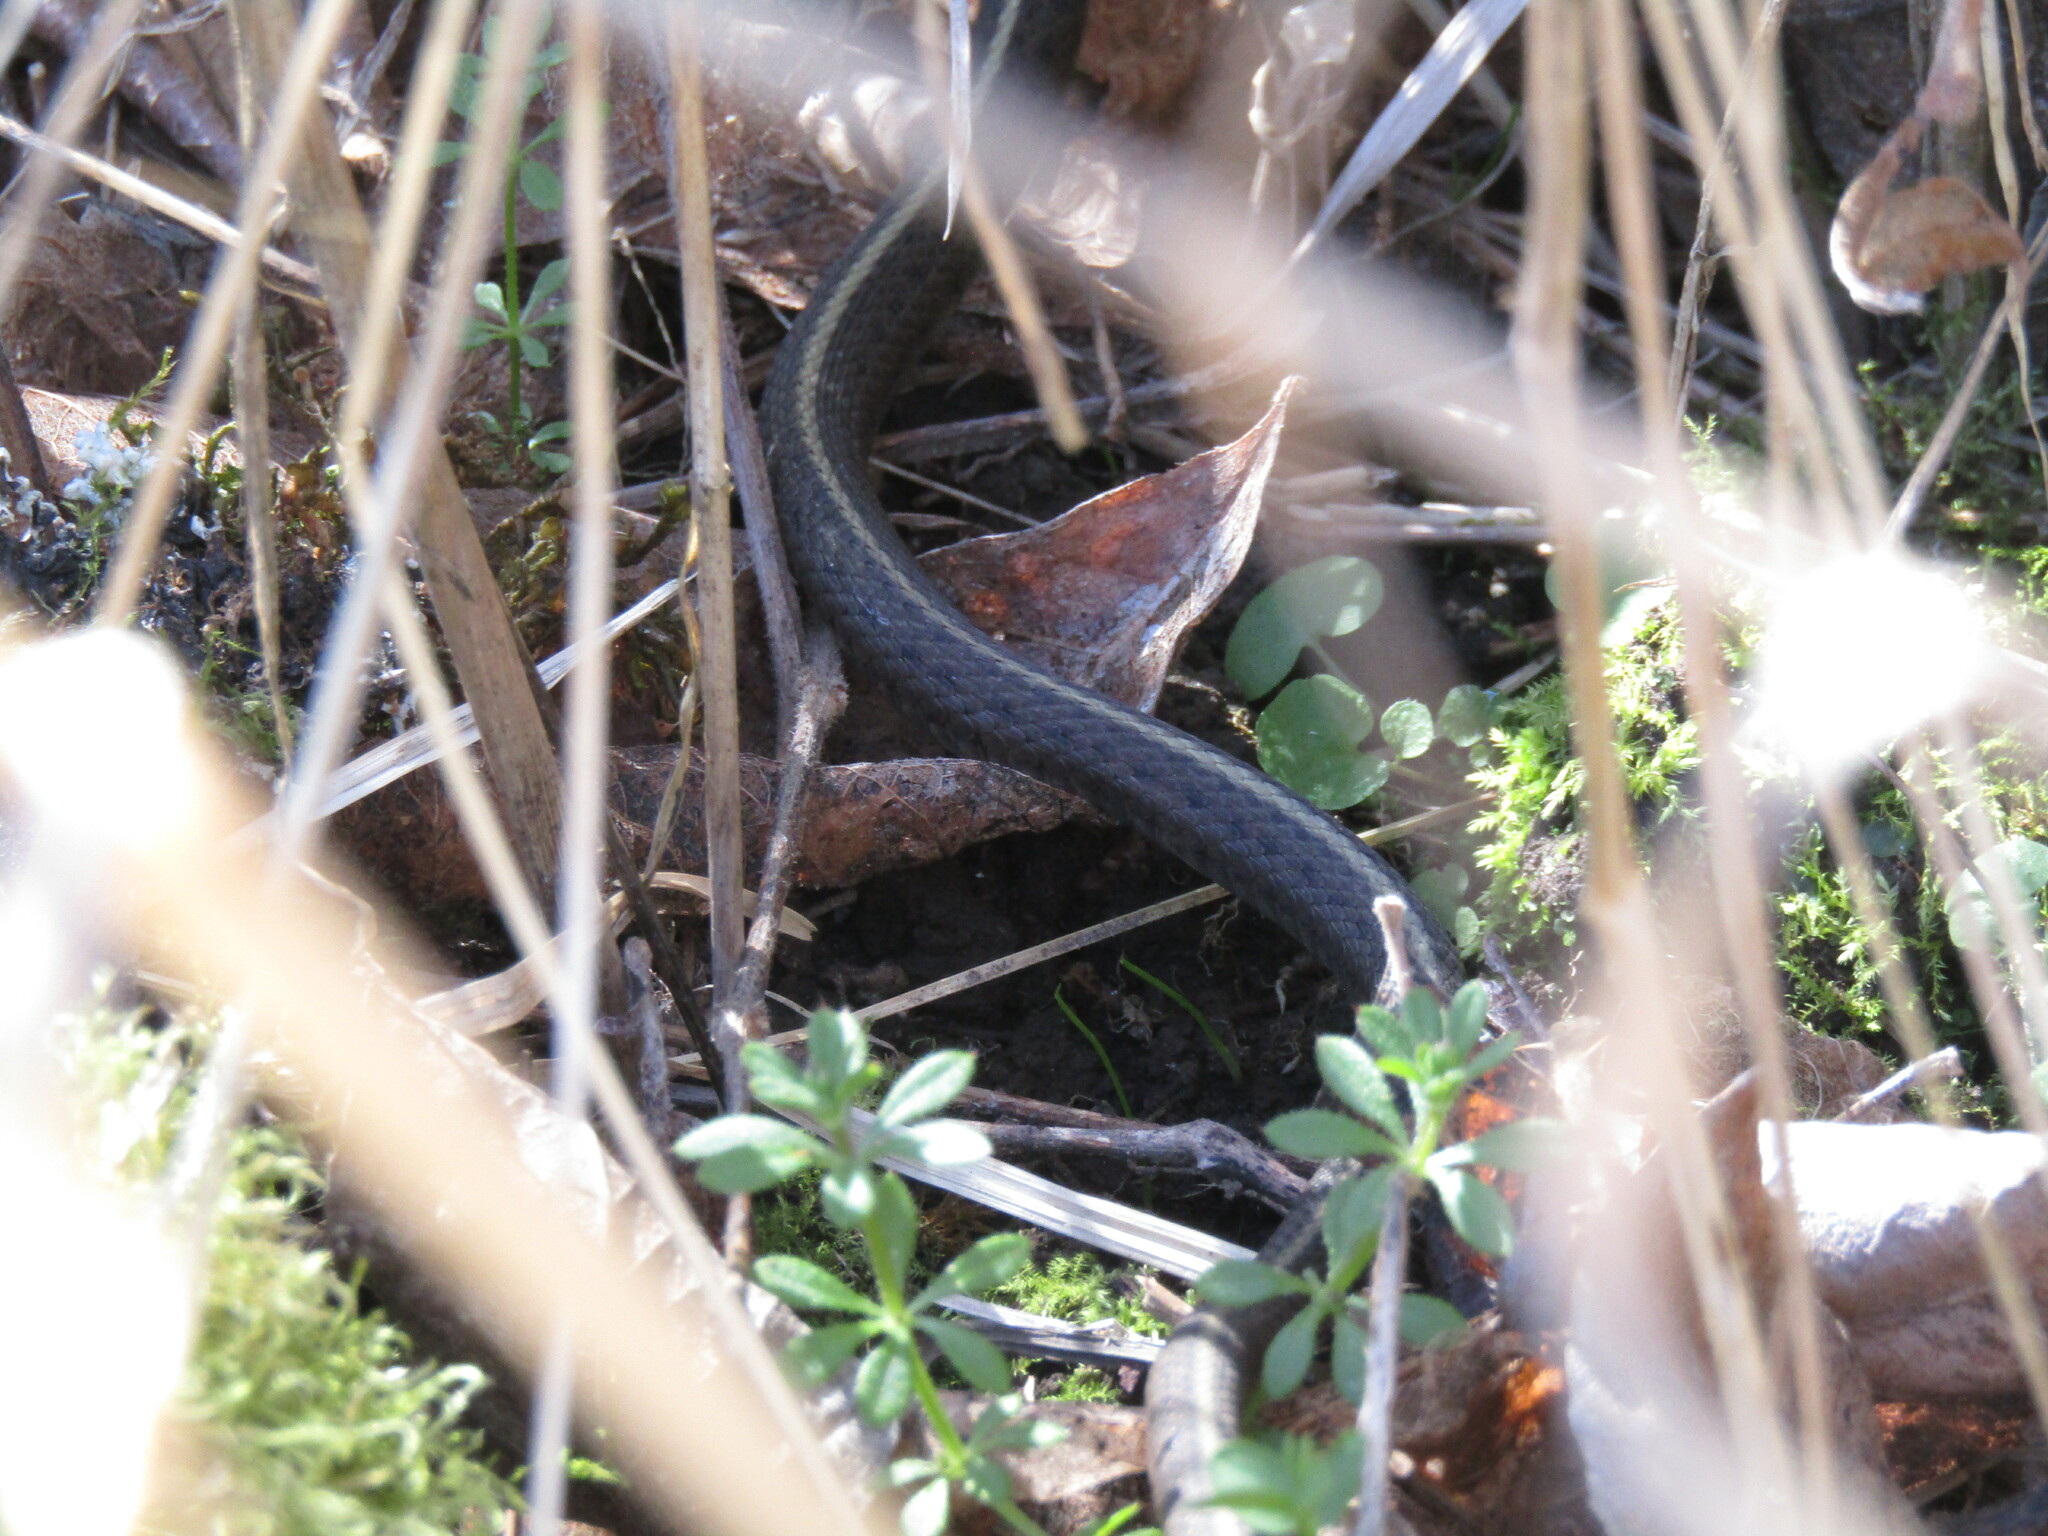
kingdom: Animalia
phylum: Chordata
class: Squamata
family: Colubridae
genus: Thamnophis
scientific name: Thamnophis ordinoides
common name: Northwestern garter snake
